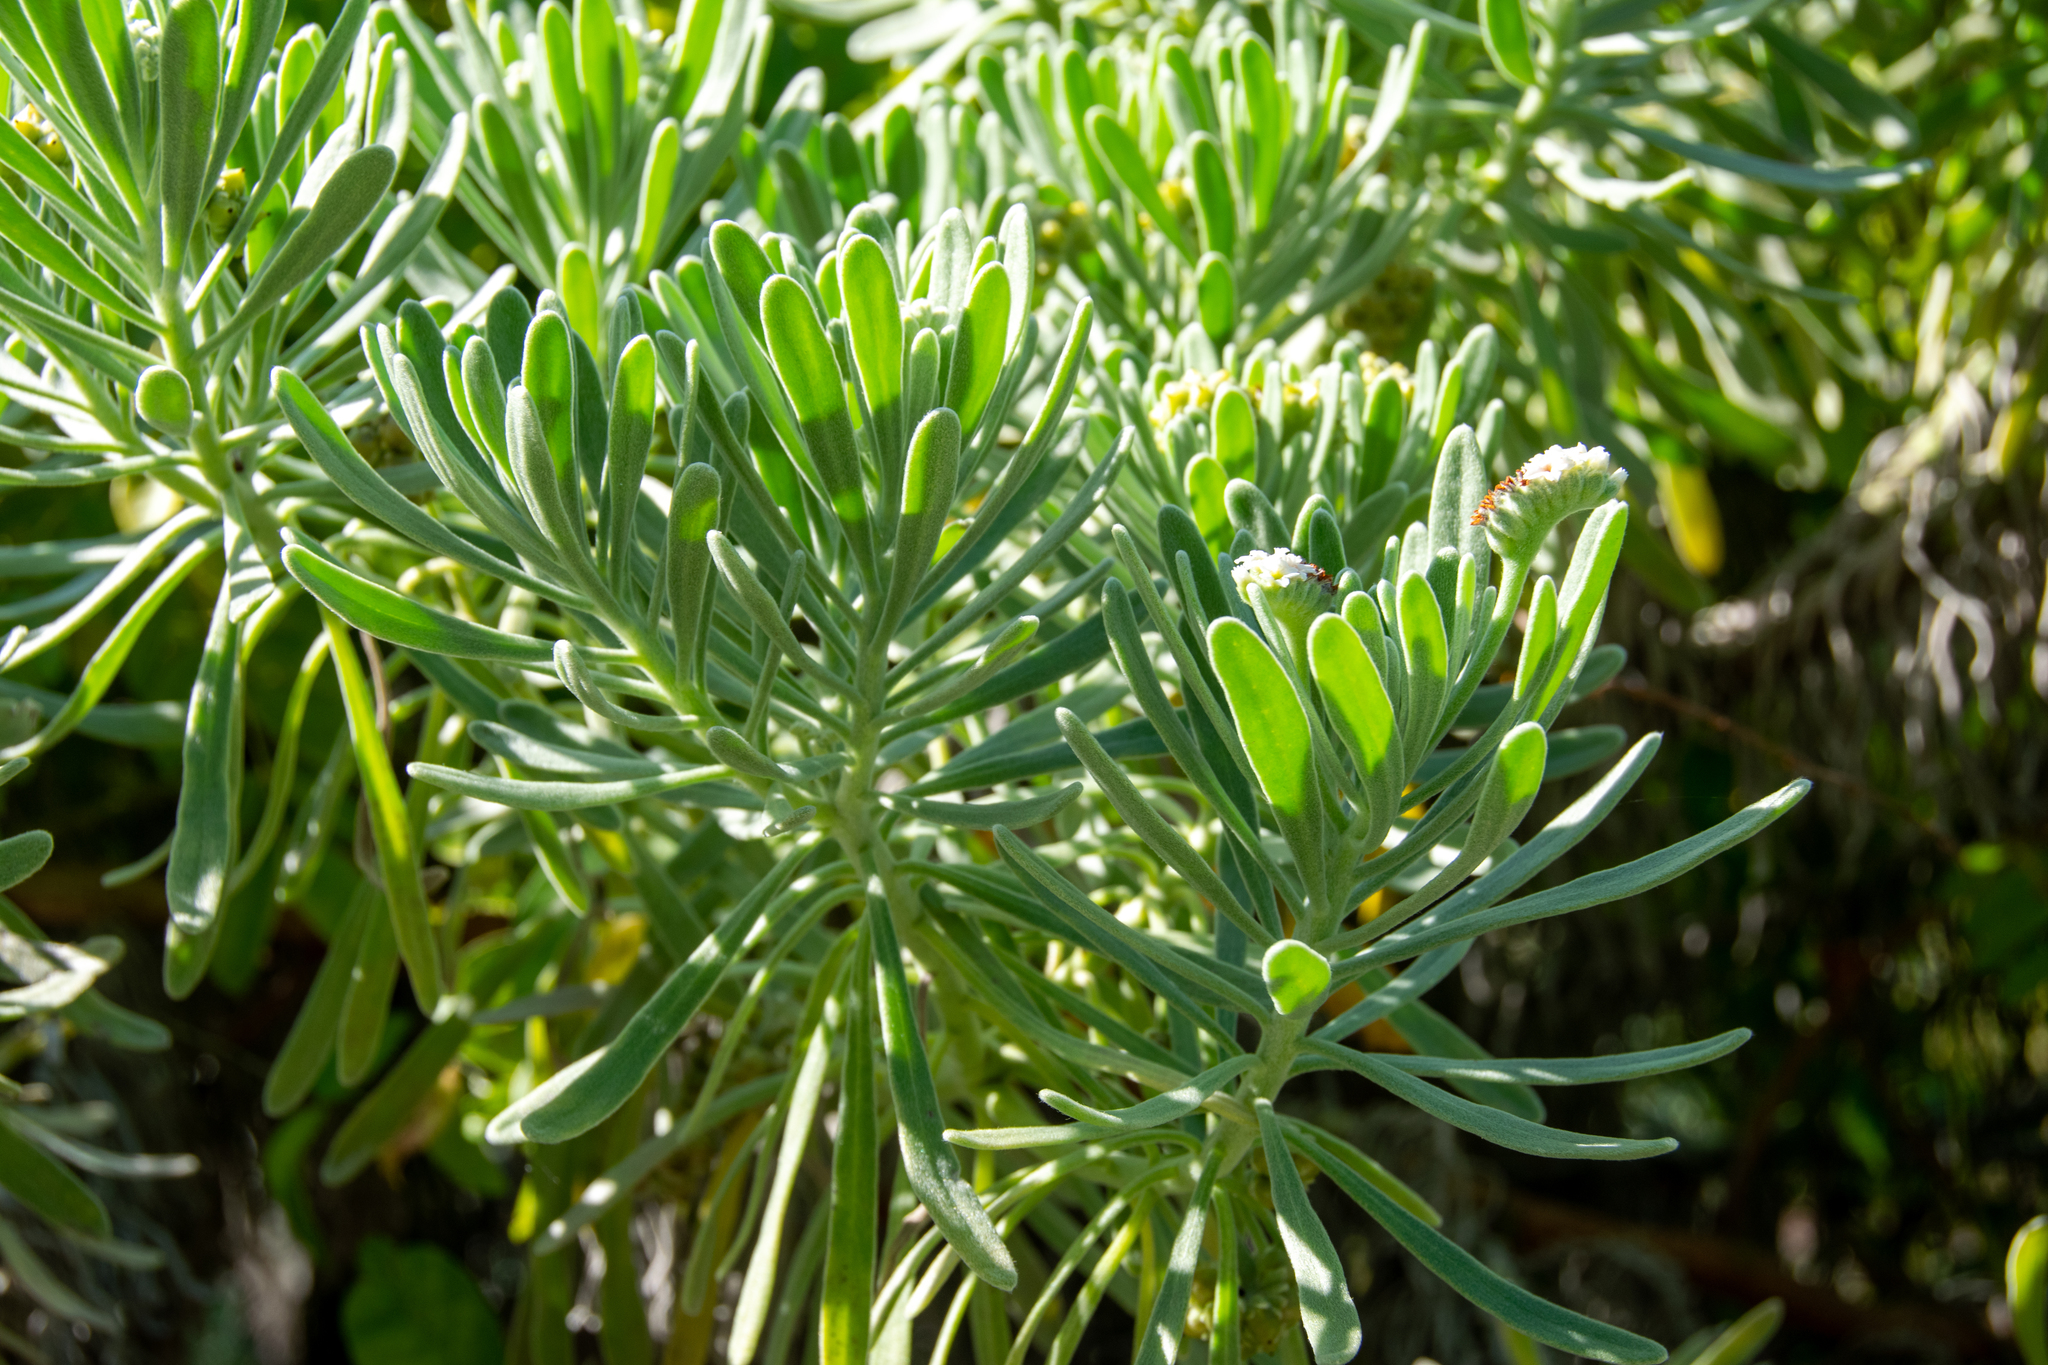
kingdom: Plantae
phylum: Tracheophyta
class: Magnoliopsida
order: Boraginales
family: Heliotropiaceae
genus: Tournefortia
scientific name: Tournefortia gnaphalodes
